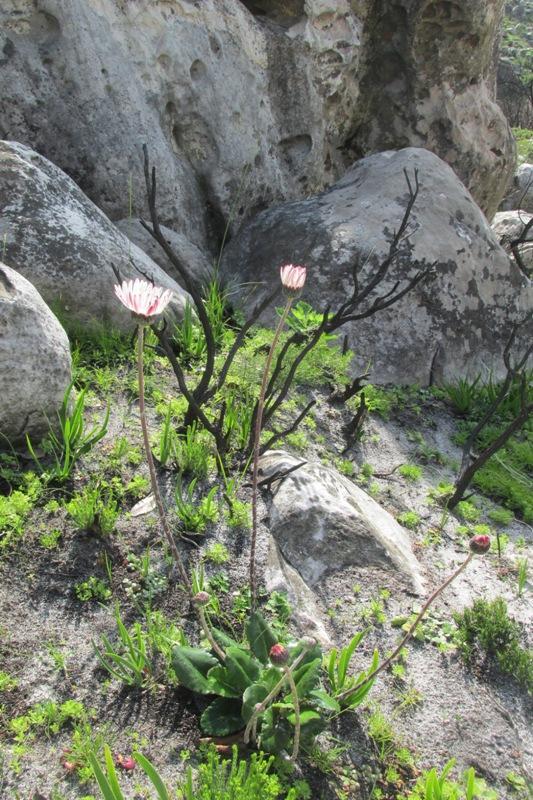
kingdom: Plantae
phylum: Tracheophyta
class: Magnoliopsida
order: Asterales
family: Asteraceae
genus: Gerbera
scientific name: Gerbera wrightii
